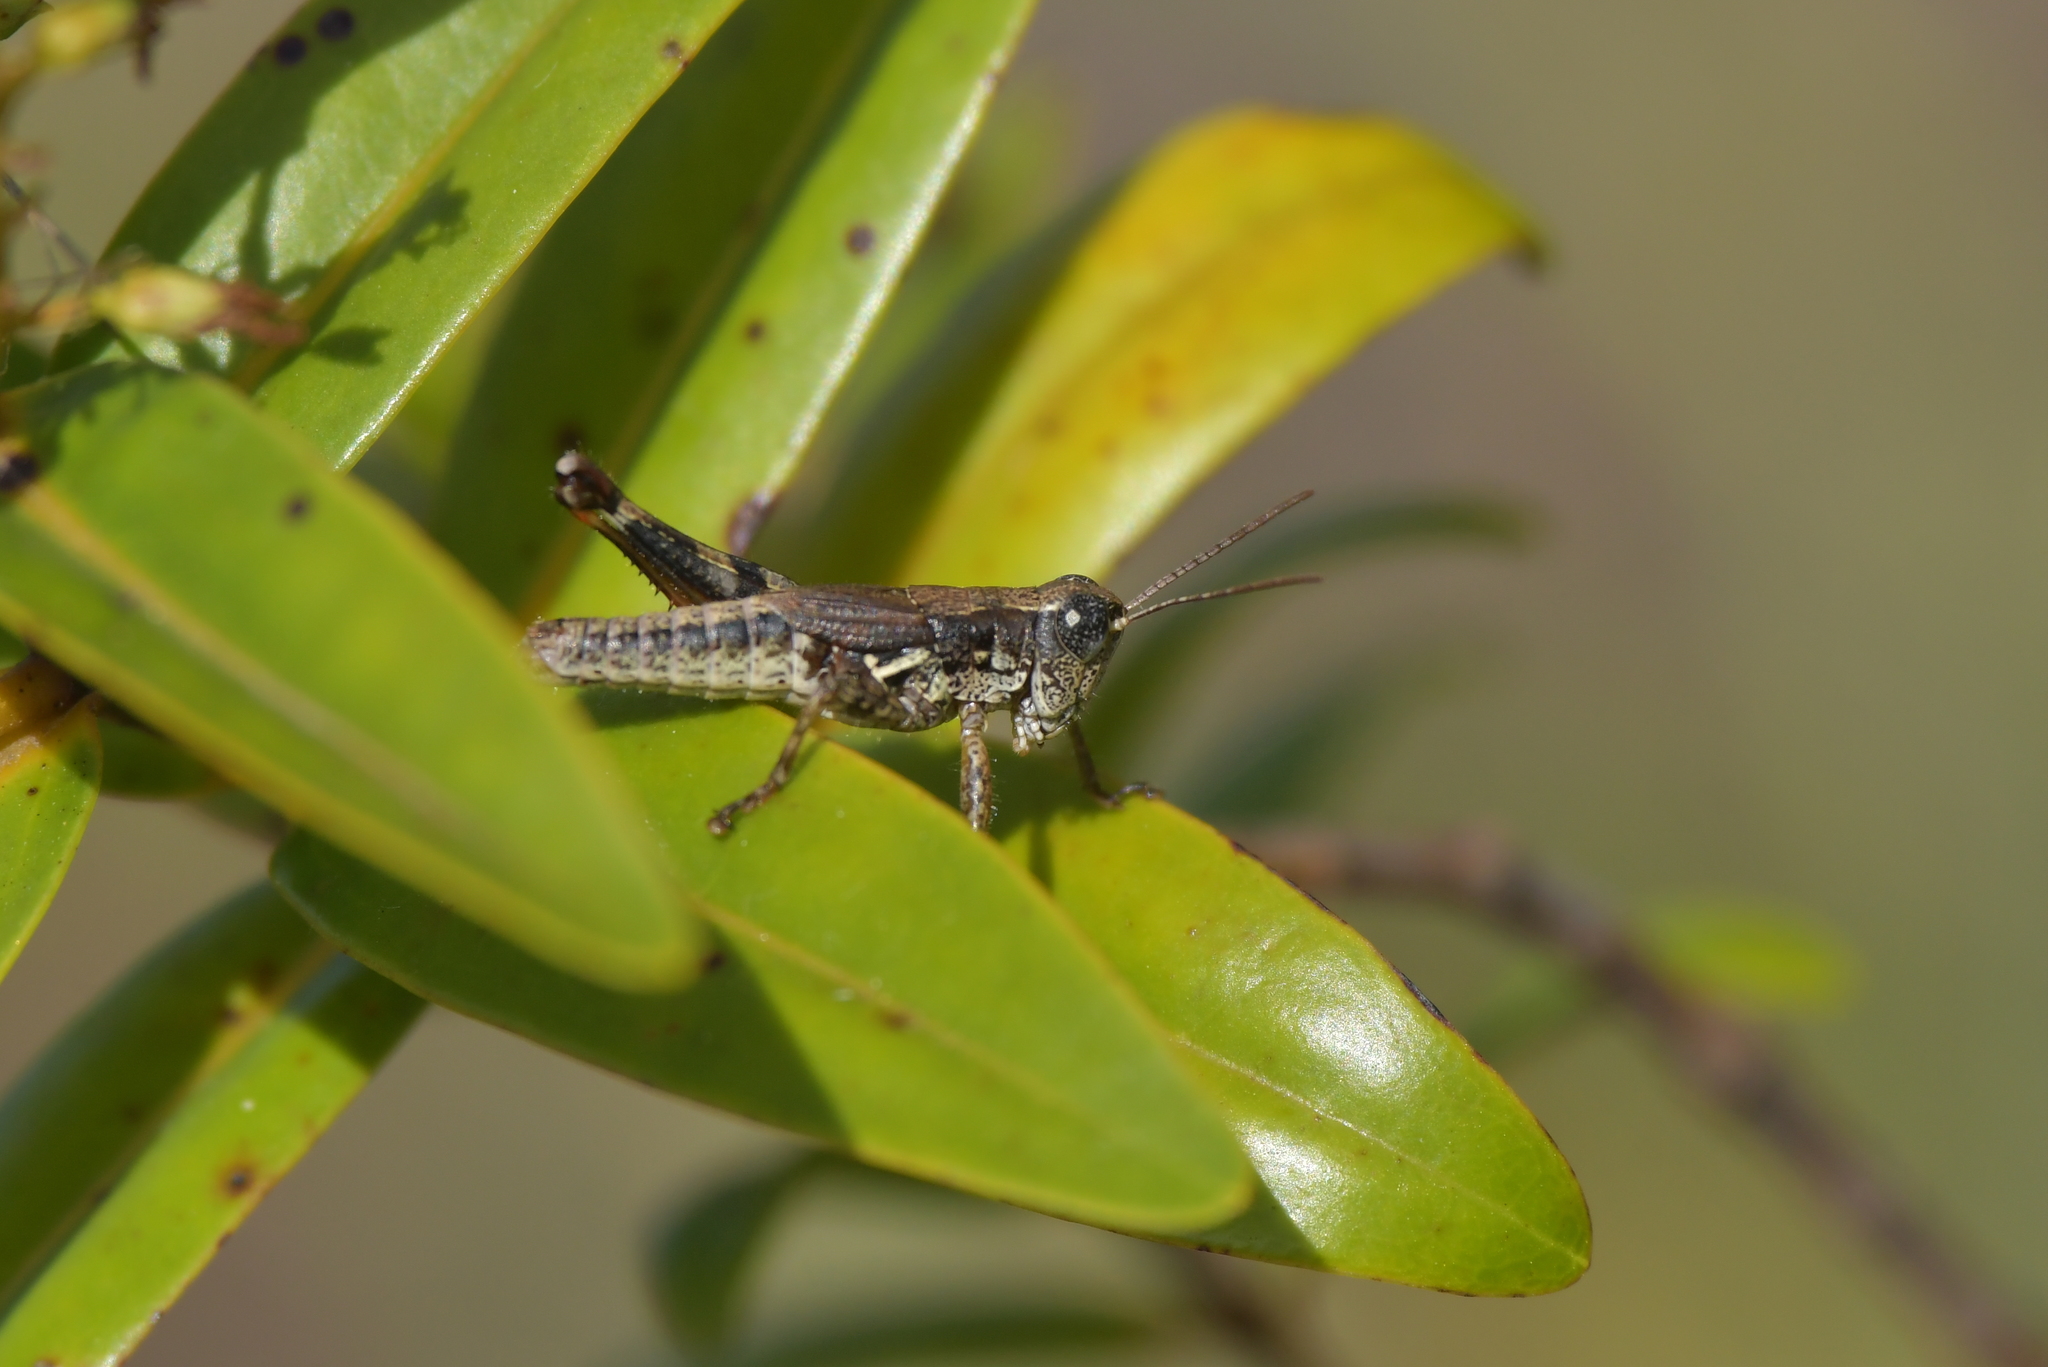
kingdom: Animalia
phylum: Arthropoda
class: Insecta
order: Orthoptera
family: Acrididae
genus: Phaulacridium
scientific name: Phaulacridium marginale
